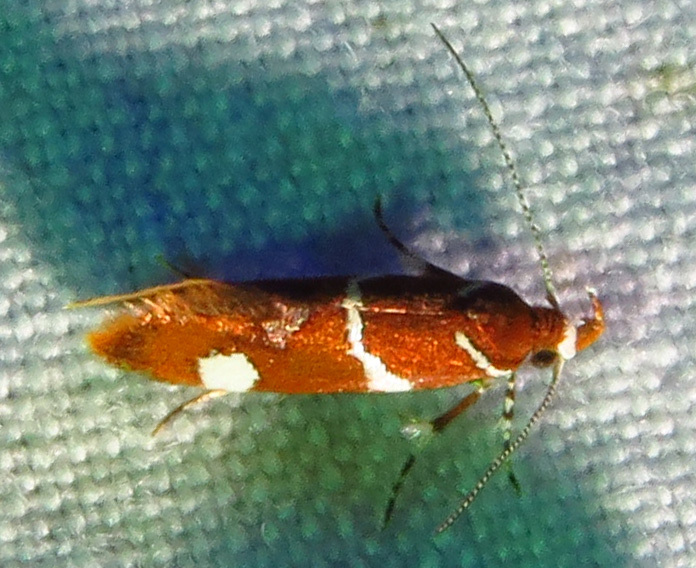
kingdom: Animalia
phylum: Arthropoda
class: Insecta
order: Lepidoptera
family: Oecophoridae
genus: Promalactis
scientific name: Promalactis suzukiella
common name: Moth
